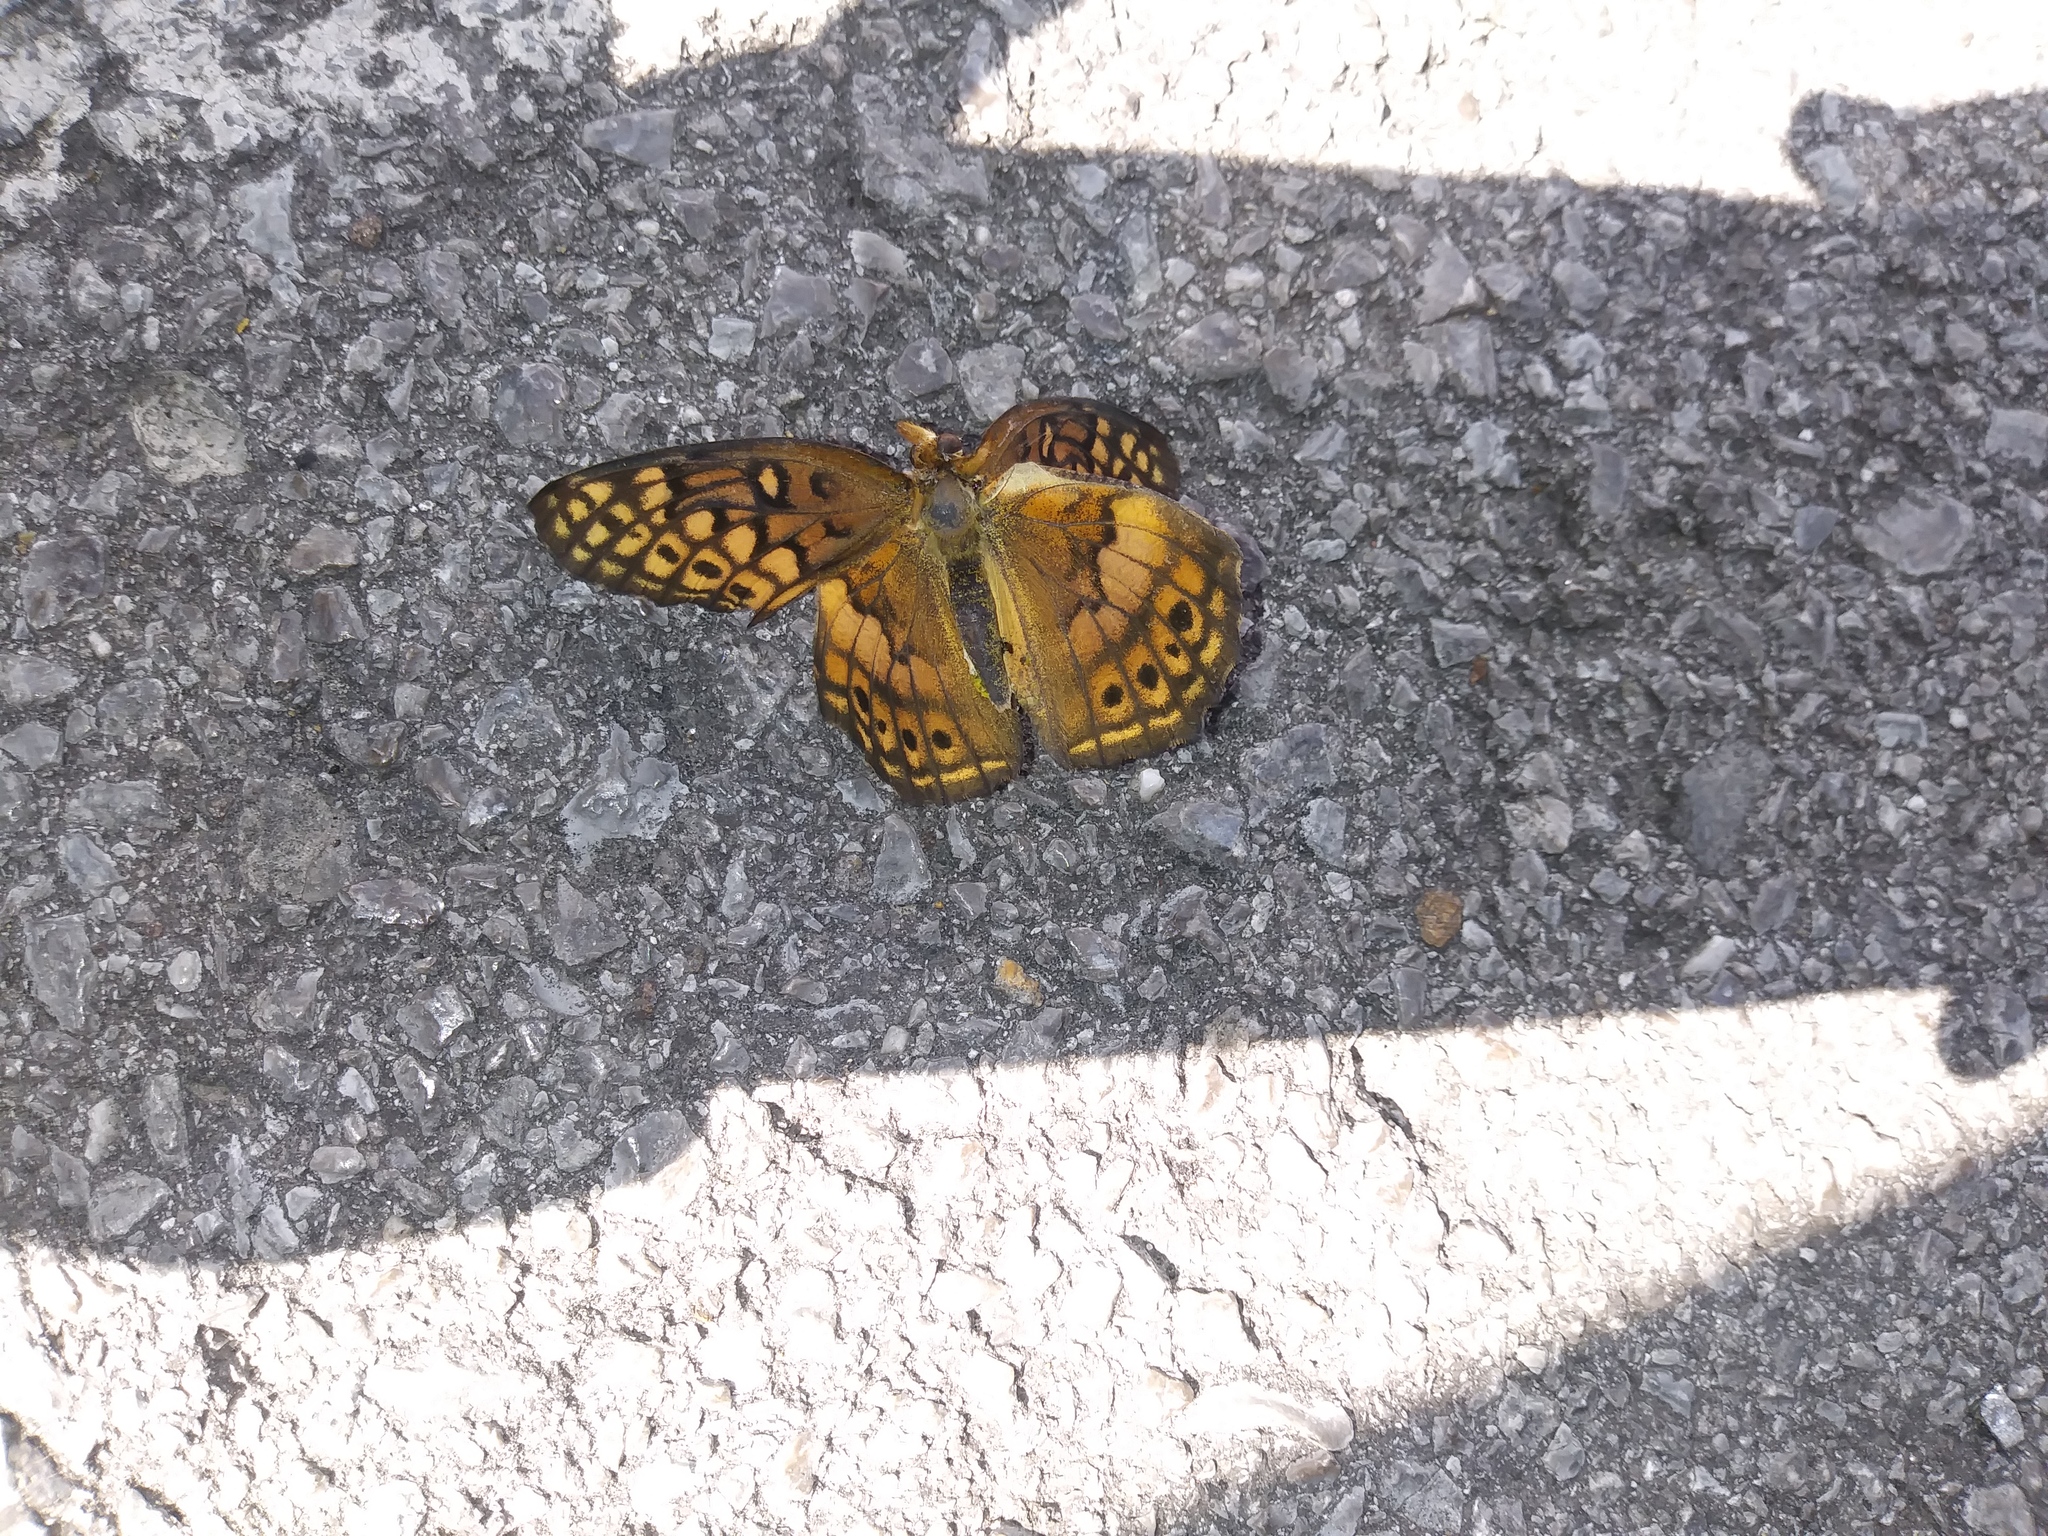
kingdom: Animalia
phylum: Arthropoda
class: Insecta
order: Lepidoptera
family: Nymphalidae
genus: Euptoieta
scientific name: Euptoieta claudia
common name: Variegated fritillary
